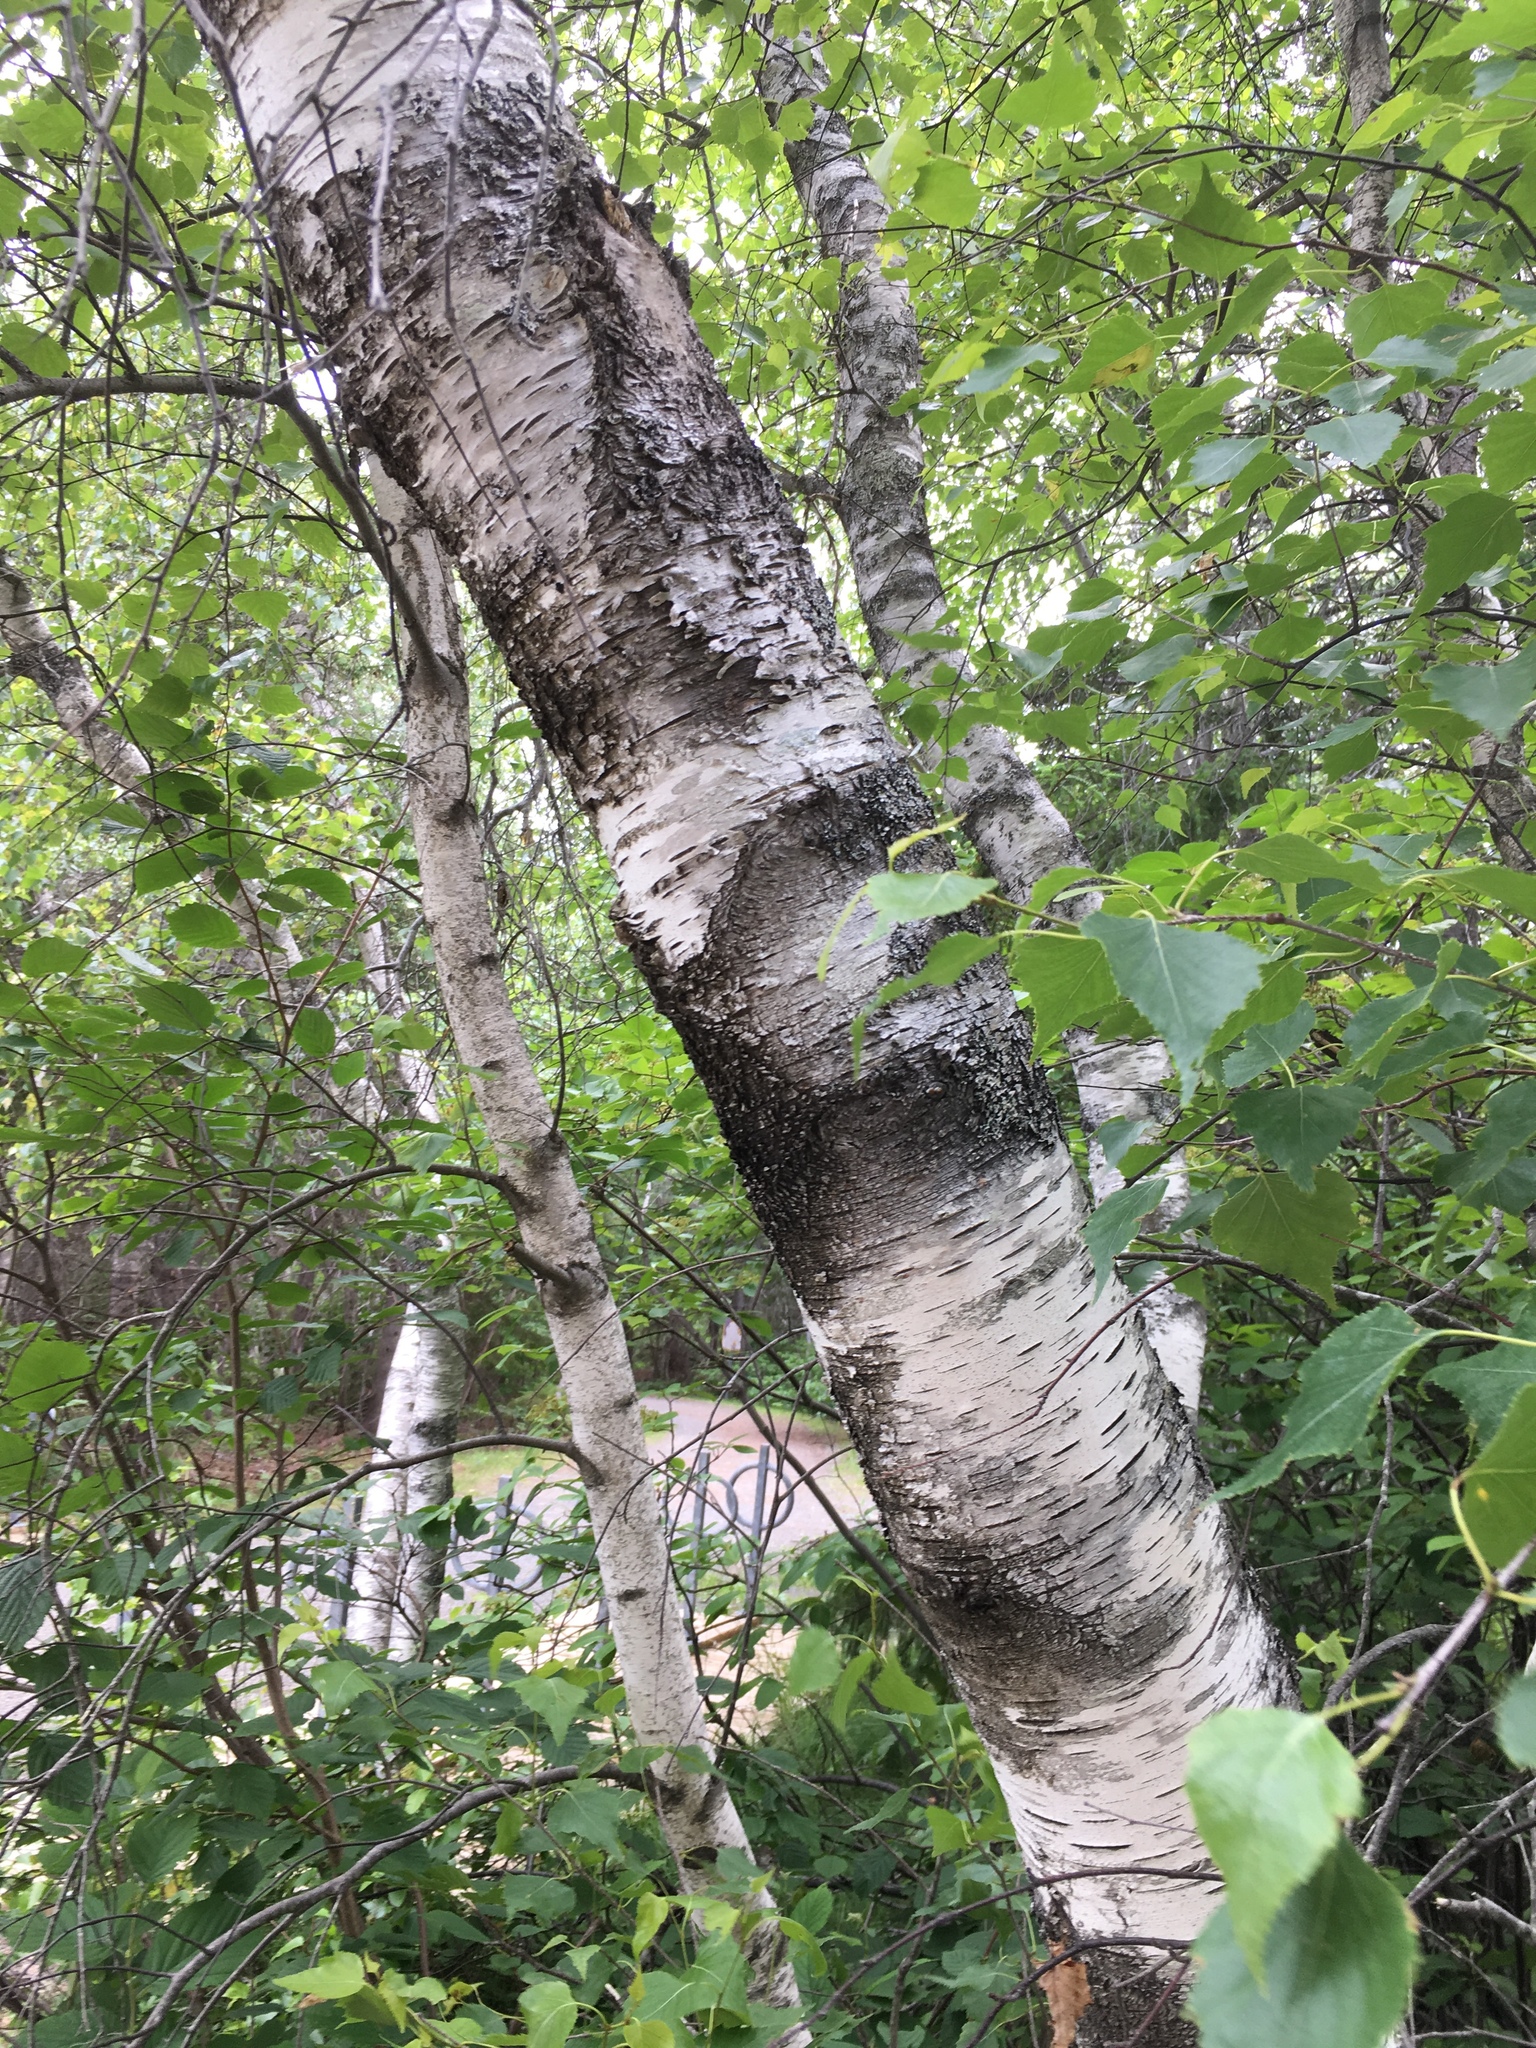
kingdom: Plantae
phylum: Tracheophyta
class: Magnoliopsida
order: Fagales
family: Betulaceae
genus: Betula
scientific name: Betula populifolia
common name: Fire birch
